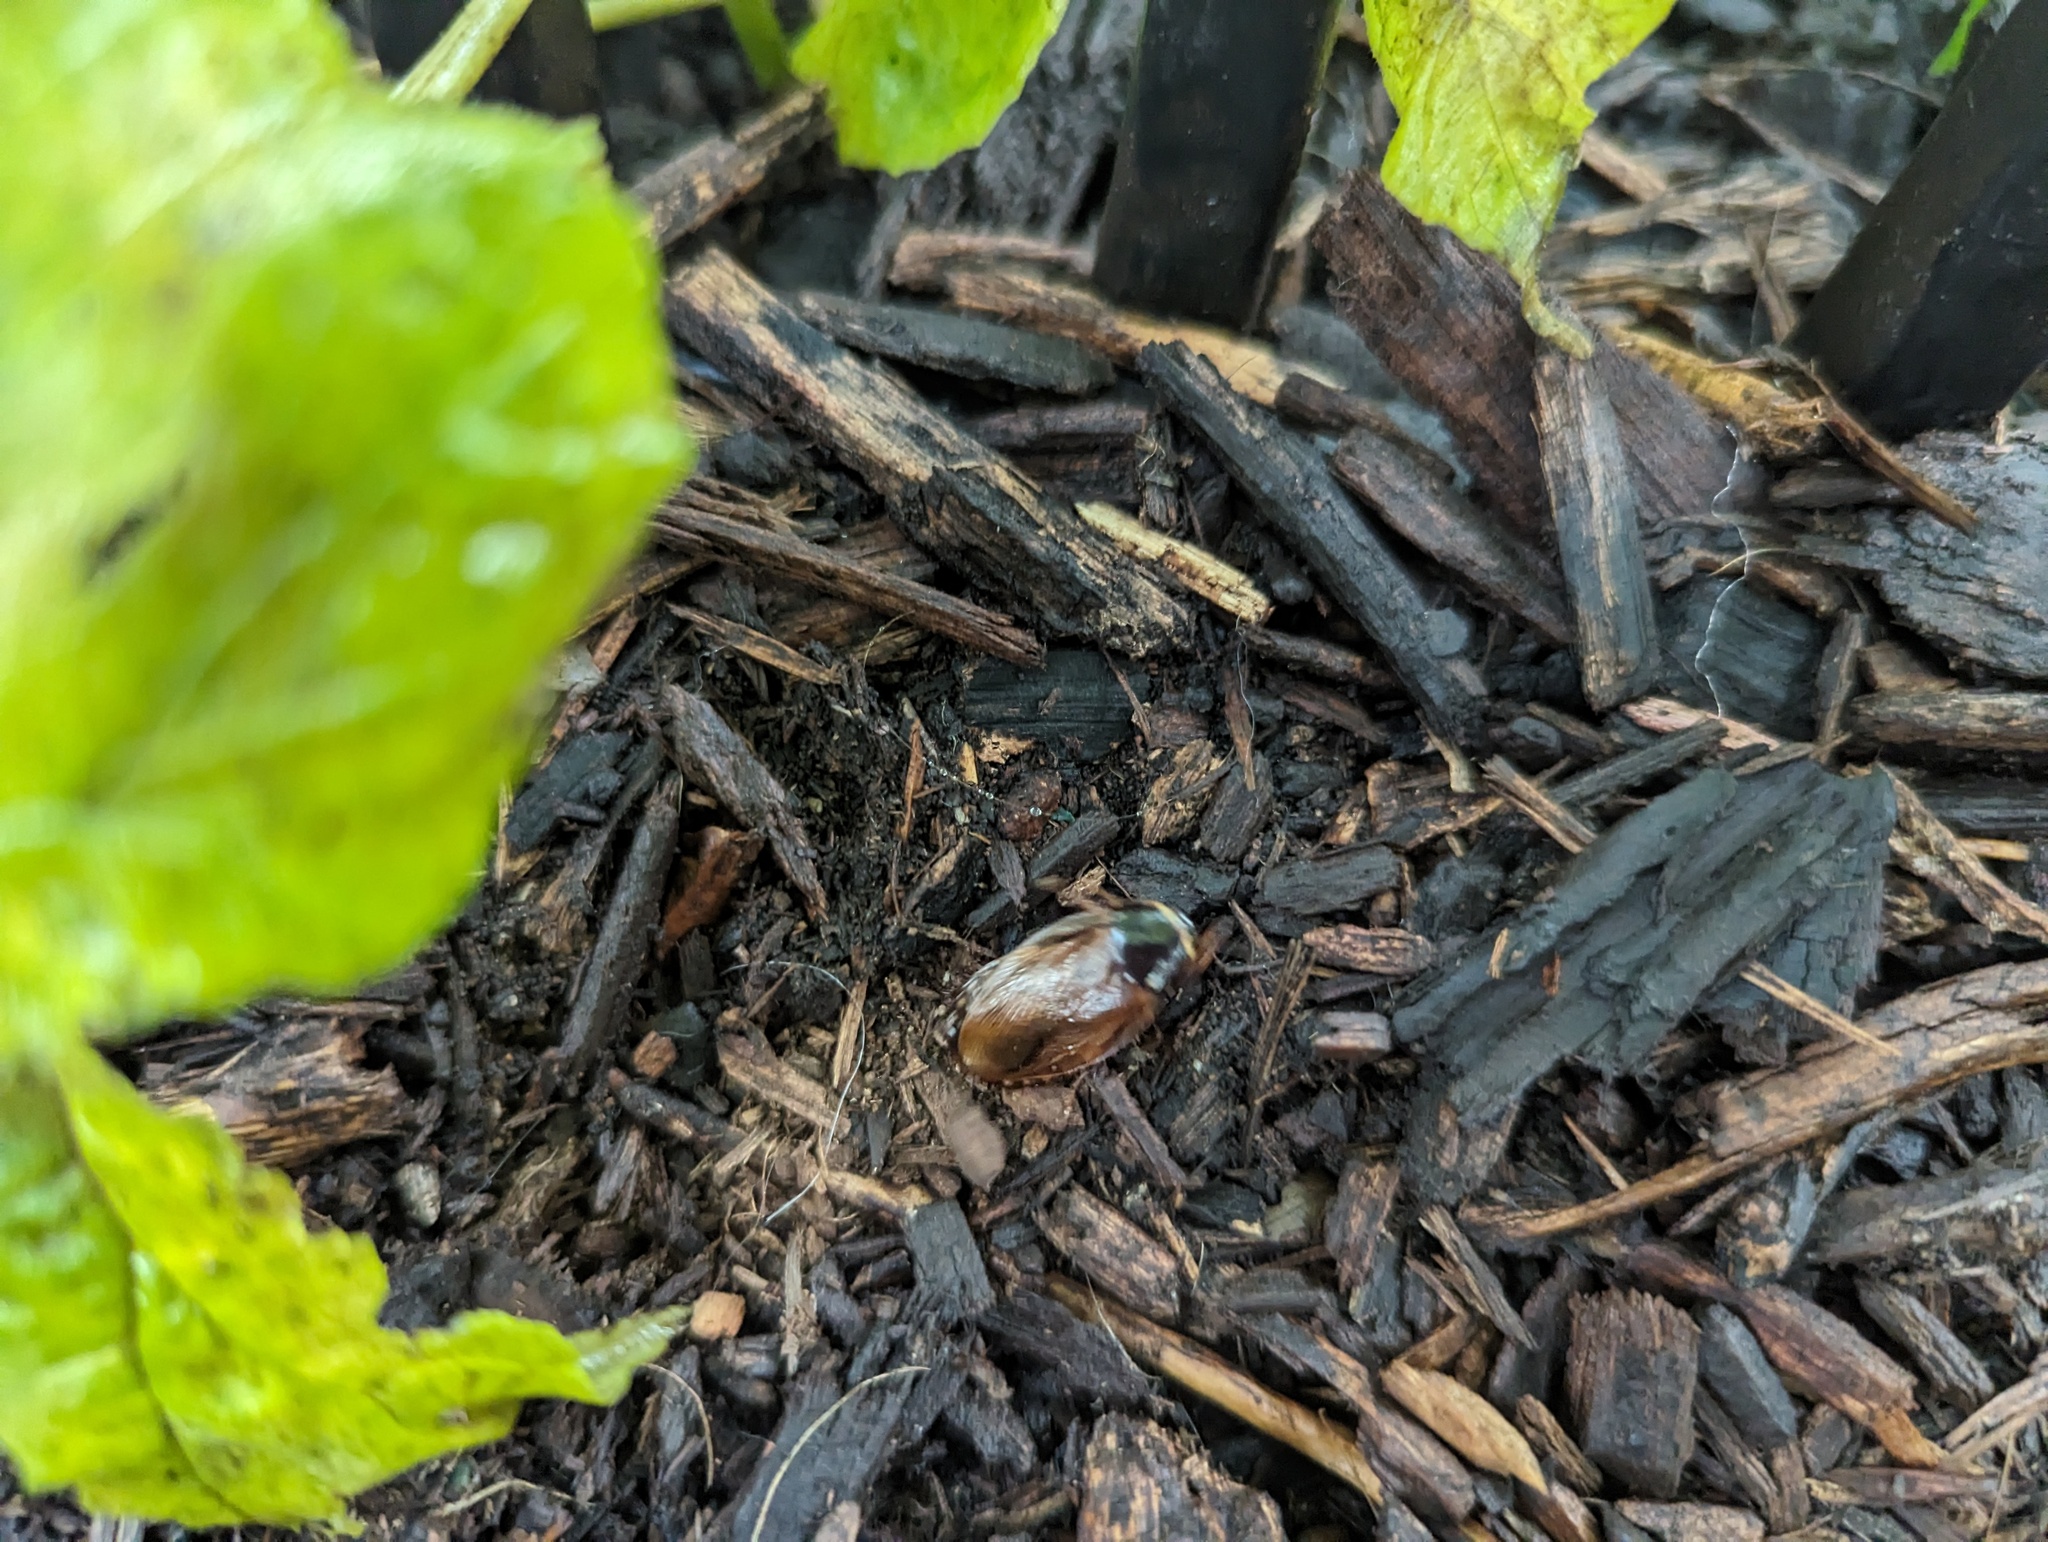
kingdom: Animalia
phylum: Arthropoda
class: Insecta
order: Blattodea
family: Blaberidae
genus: Pycnoscelus
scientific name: Pycnoscelus surinamensis
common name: Surinam cockroach
